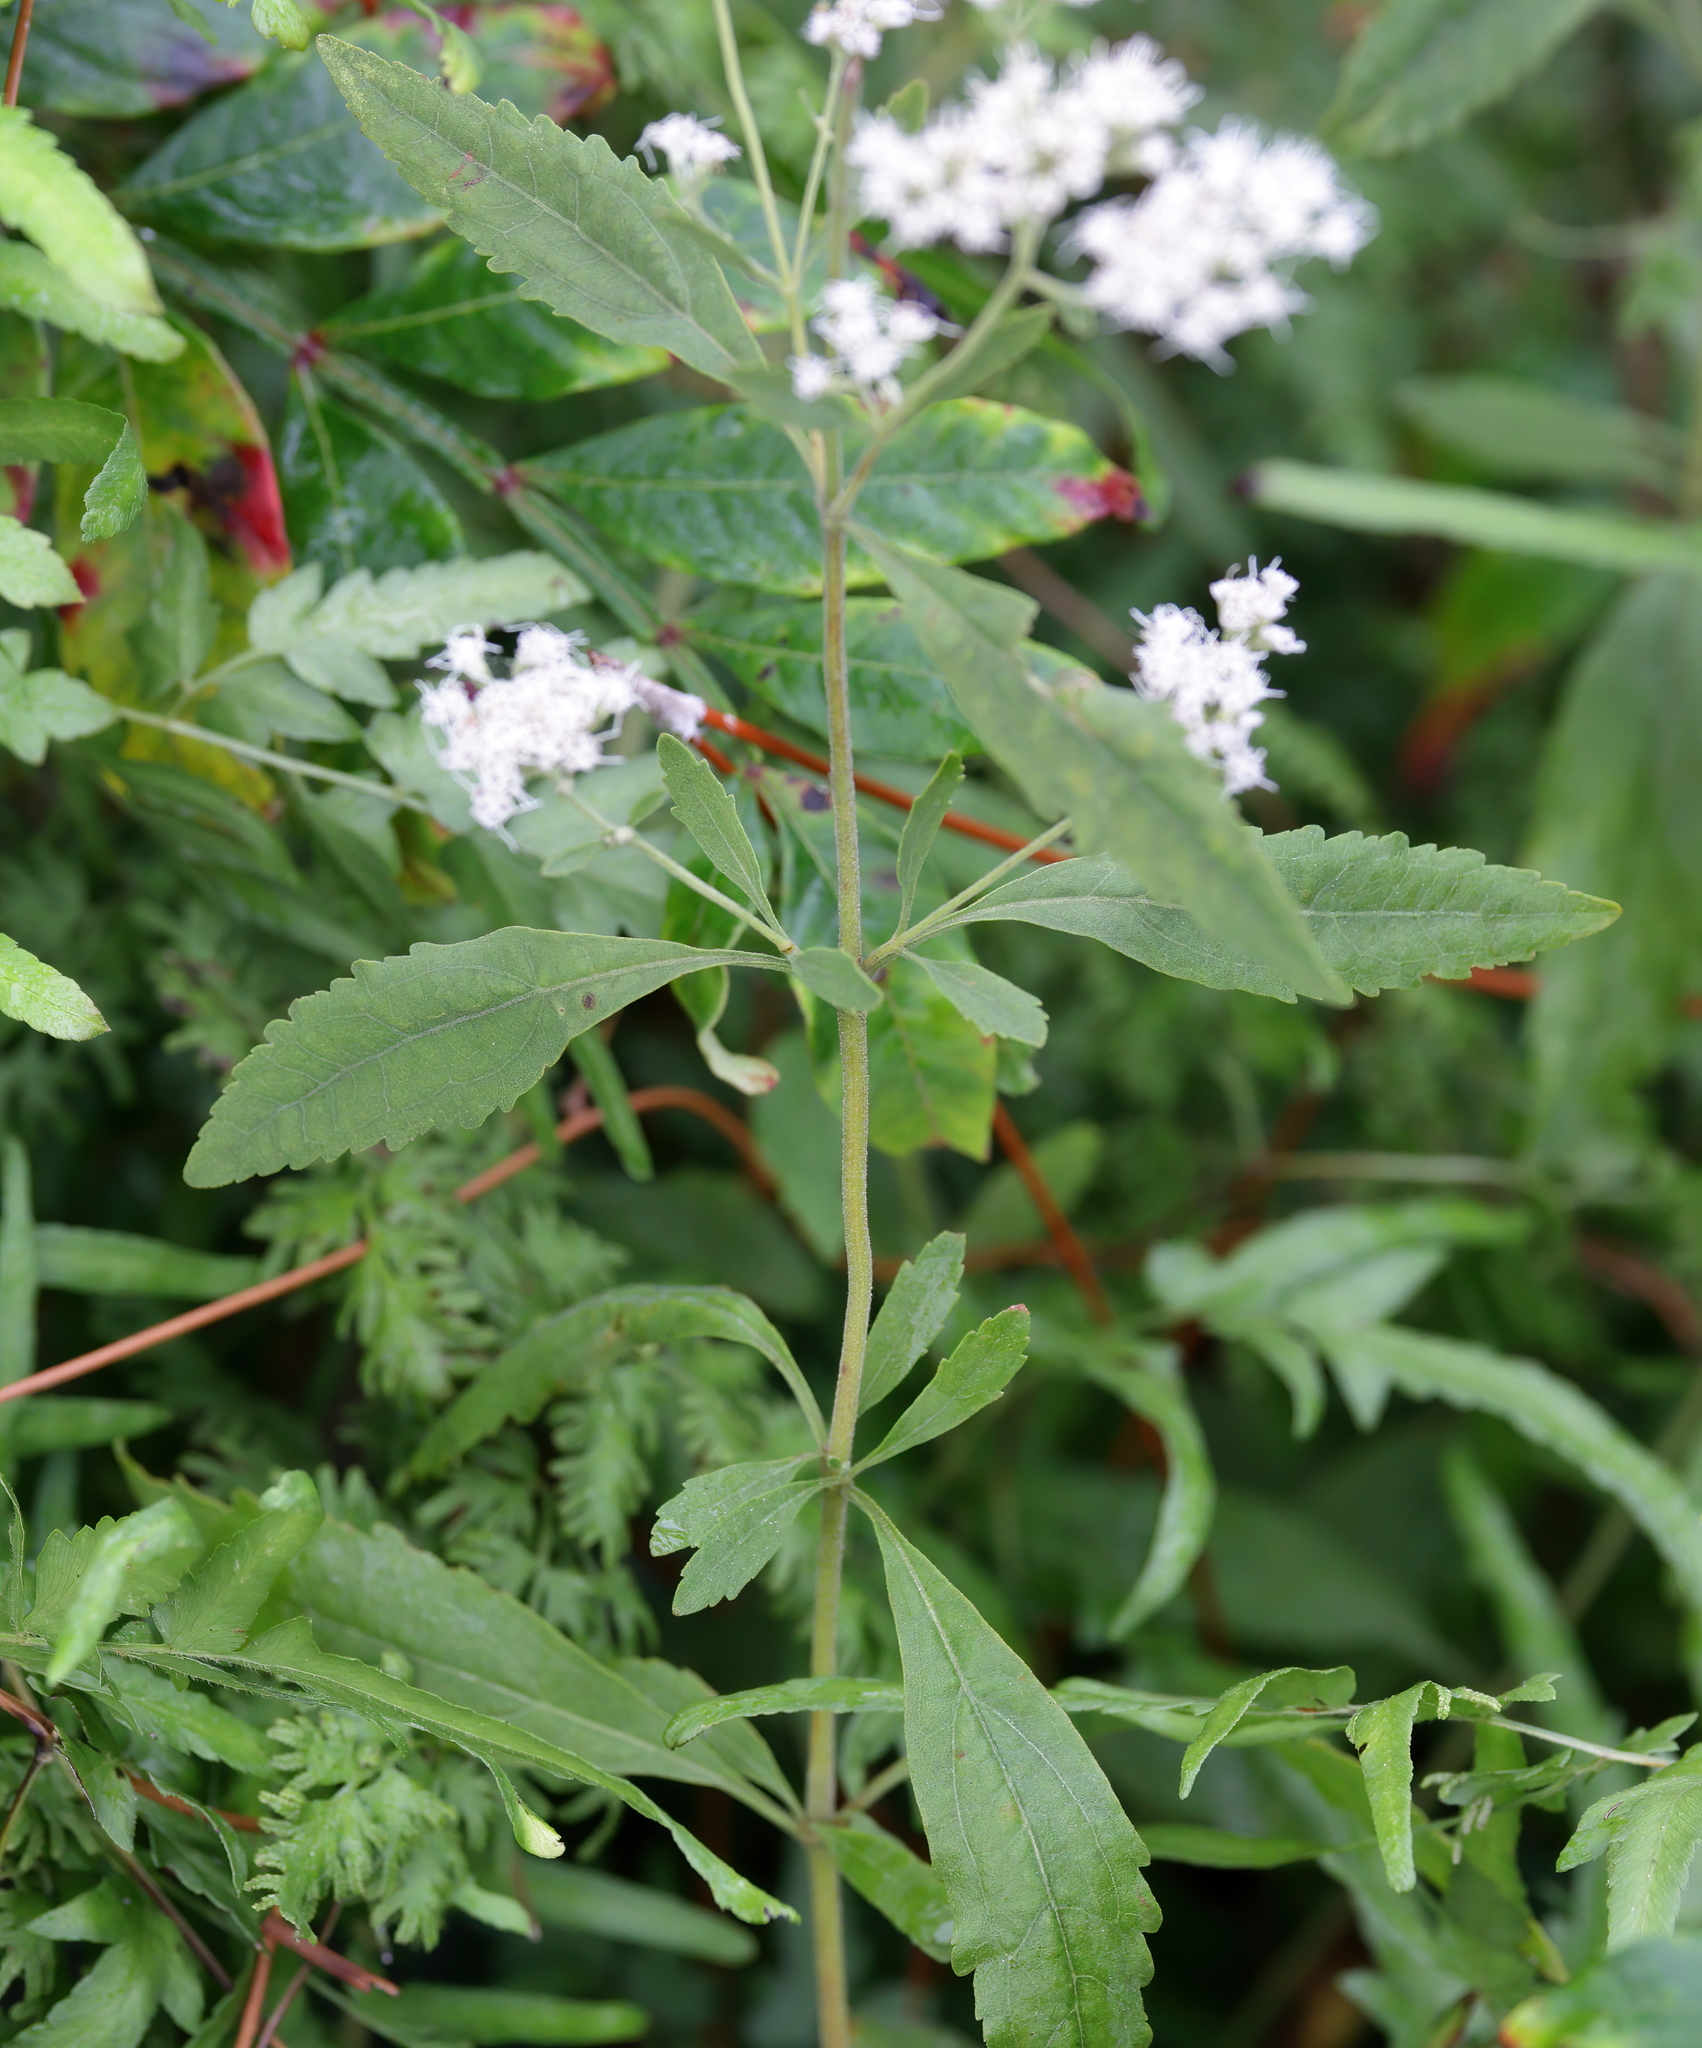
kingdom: Plantae
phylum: Tracheophyta
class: Magnoliopsida
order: Asterales
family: Asteraceae
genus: Eupatorium
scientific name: Eupatorium semiserratum
